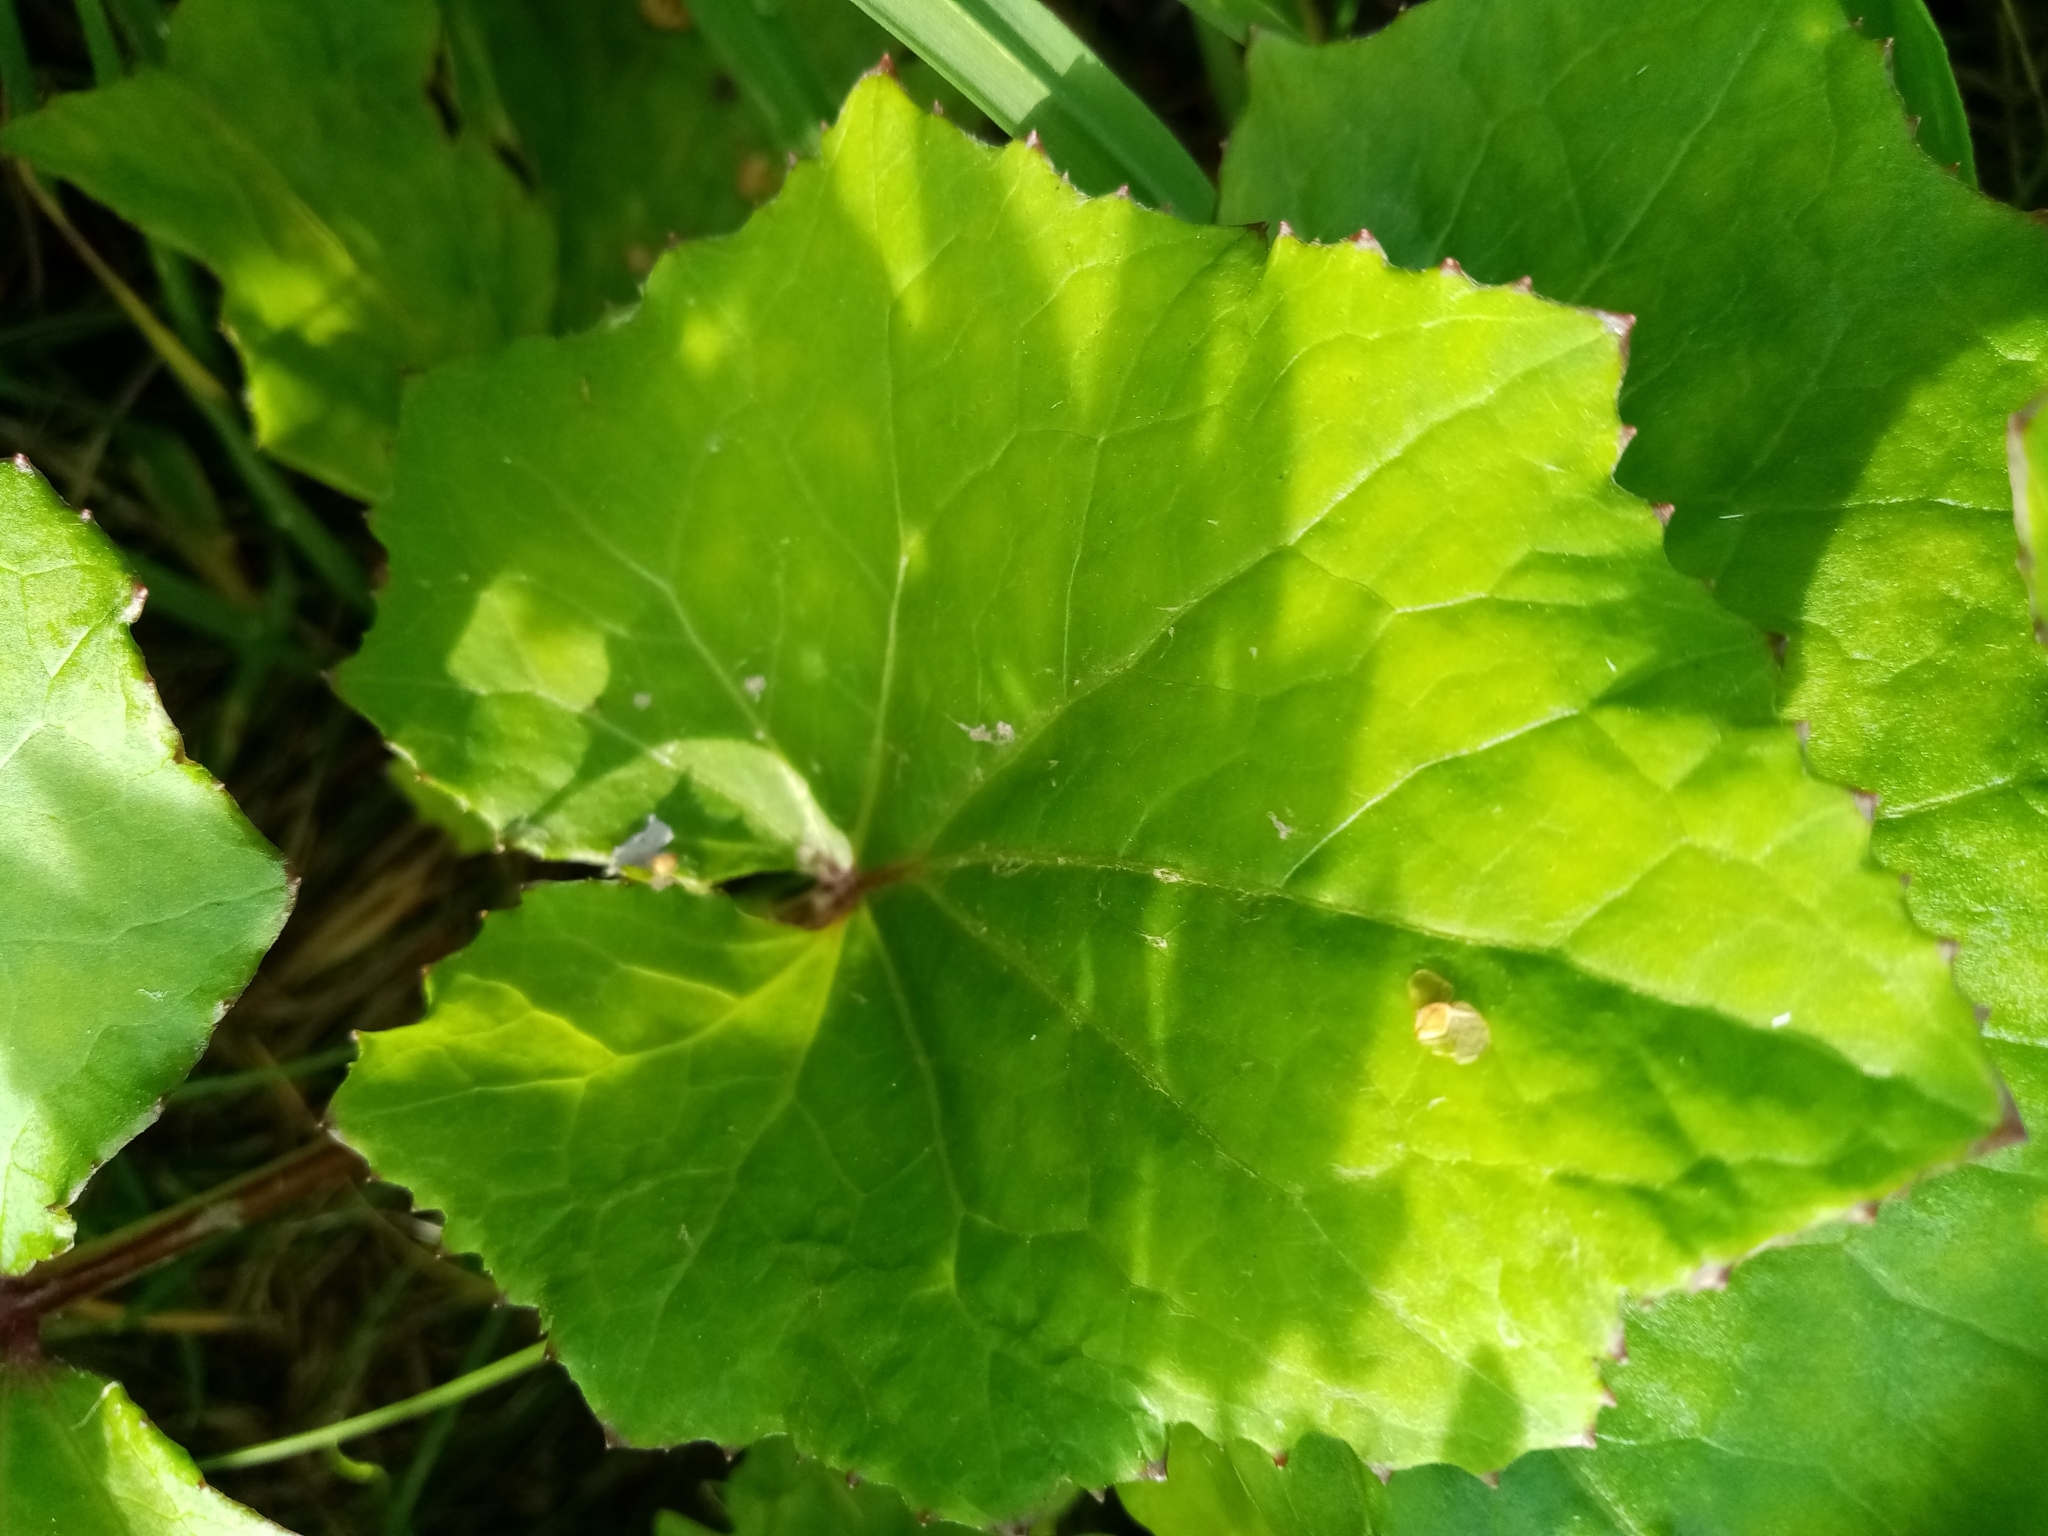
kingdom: Plantae
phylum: Tracheophyta
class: Magnoliopsida
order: Asterales
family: Asteraceae
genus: Tussilago
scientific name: Tussilago farfara
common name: Coltsfoot
